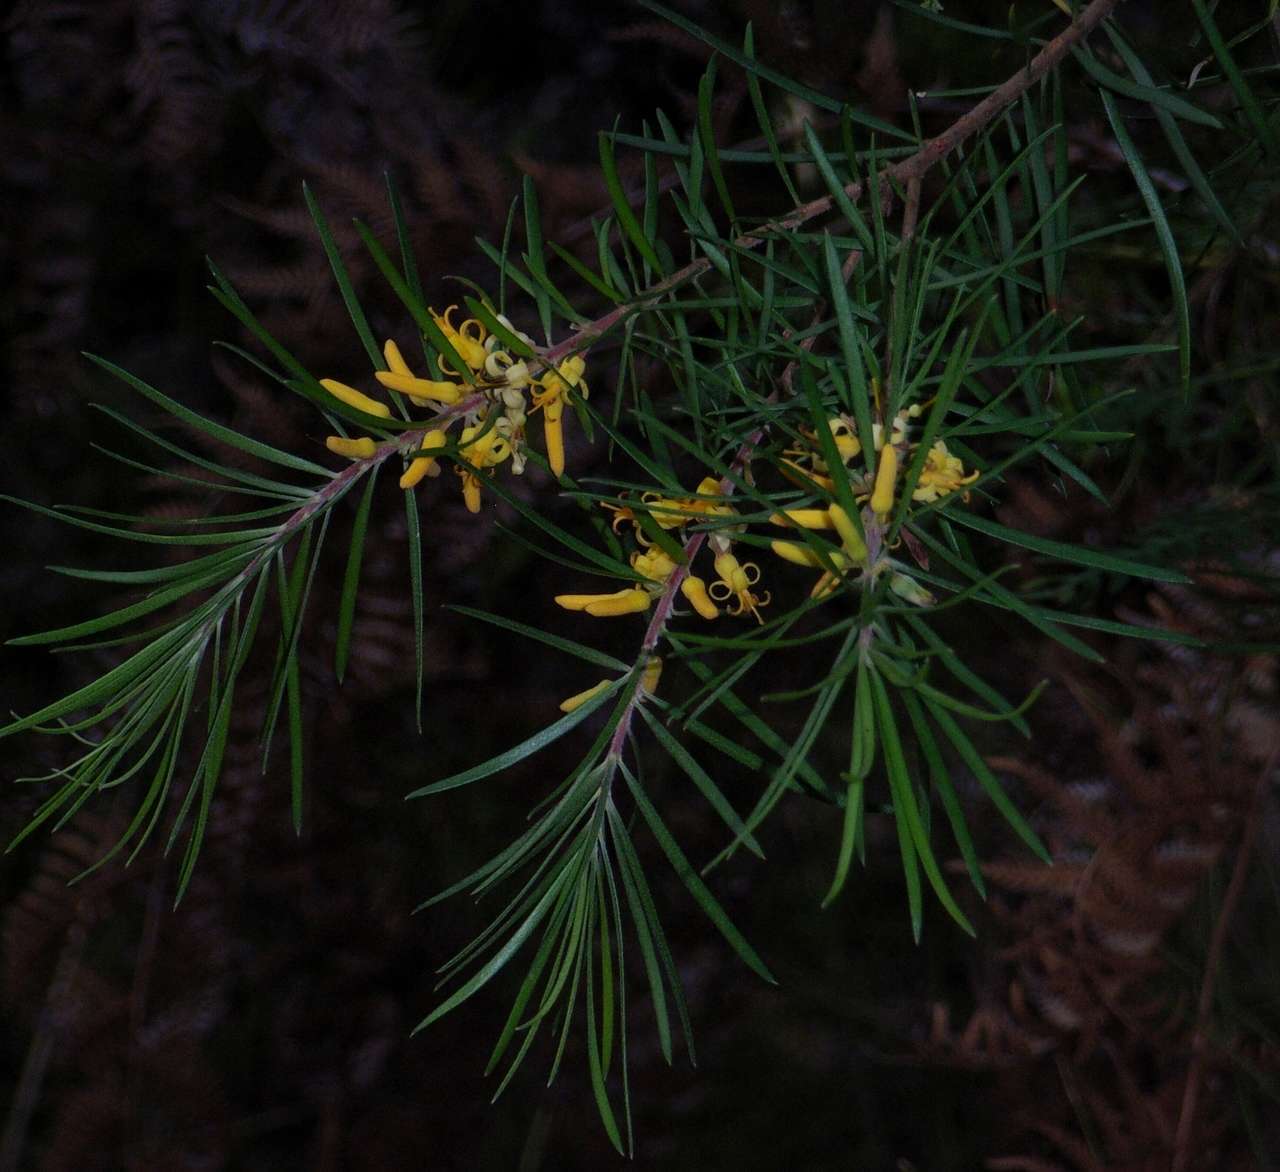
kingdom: Plantae
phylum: Tracheophyta
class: Magnoliopsida
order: Proteales
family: Proteaceae
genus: Persoonia
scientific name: Persoonia linearis
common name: Narrow-leaf geebung
